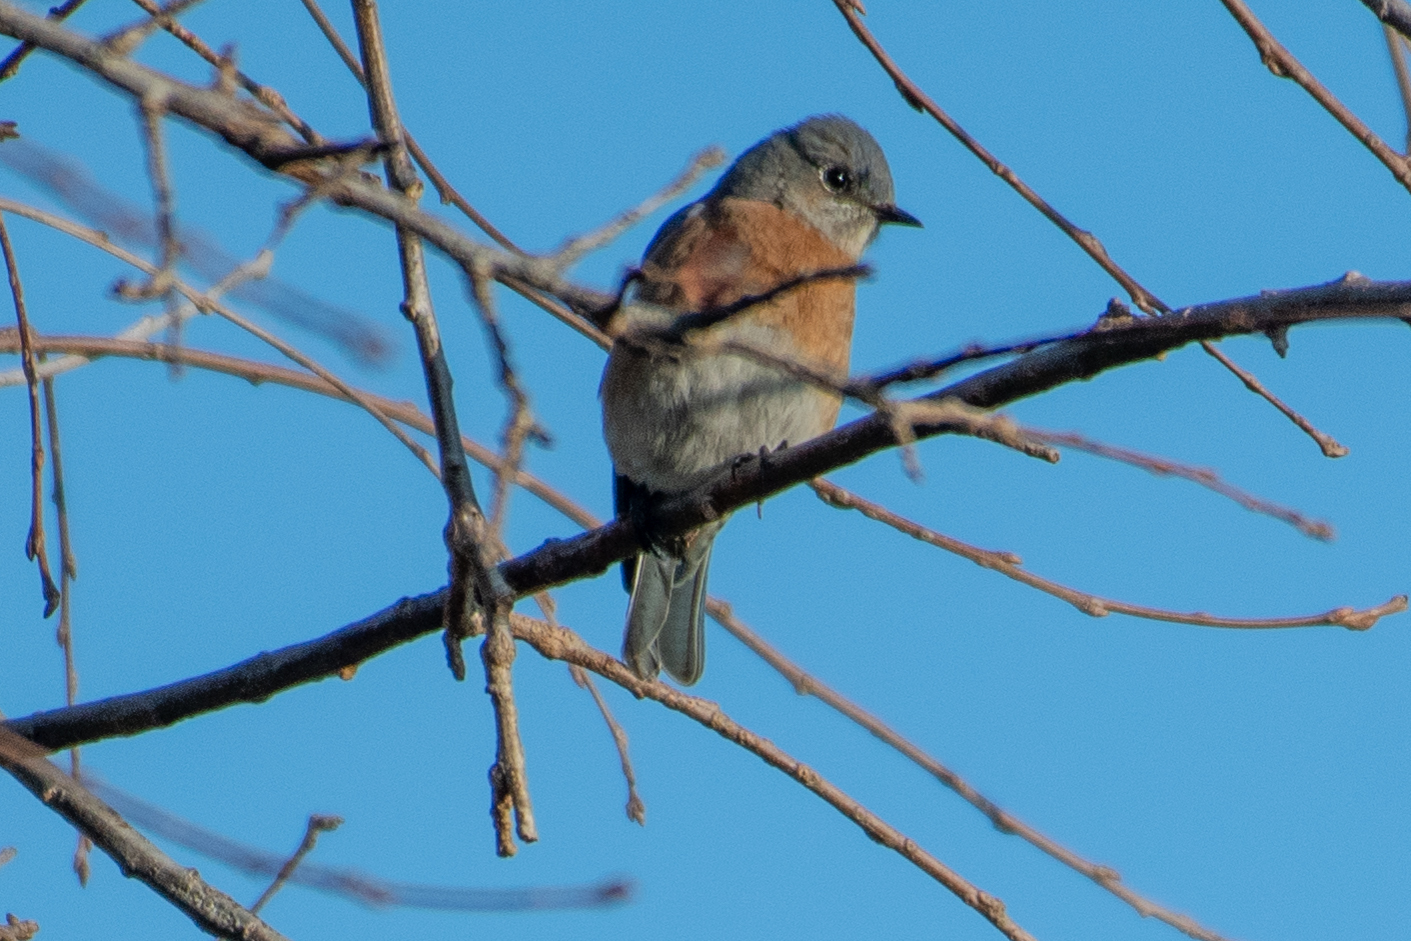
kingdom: Animalia
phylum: Chordata
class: Aves
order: Passeriformes
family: Turdidae
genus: Sialia
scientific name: Sialia mexicana
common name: Western bluebird
